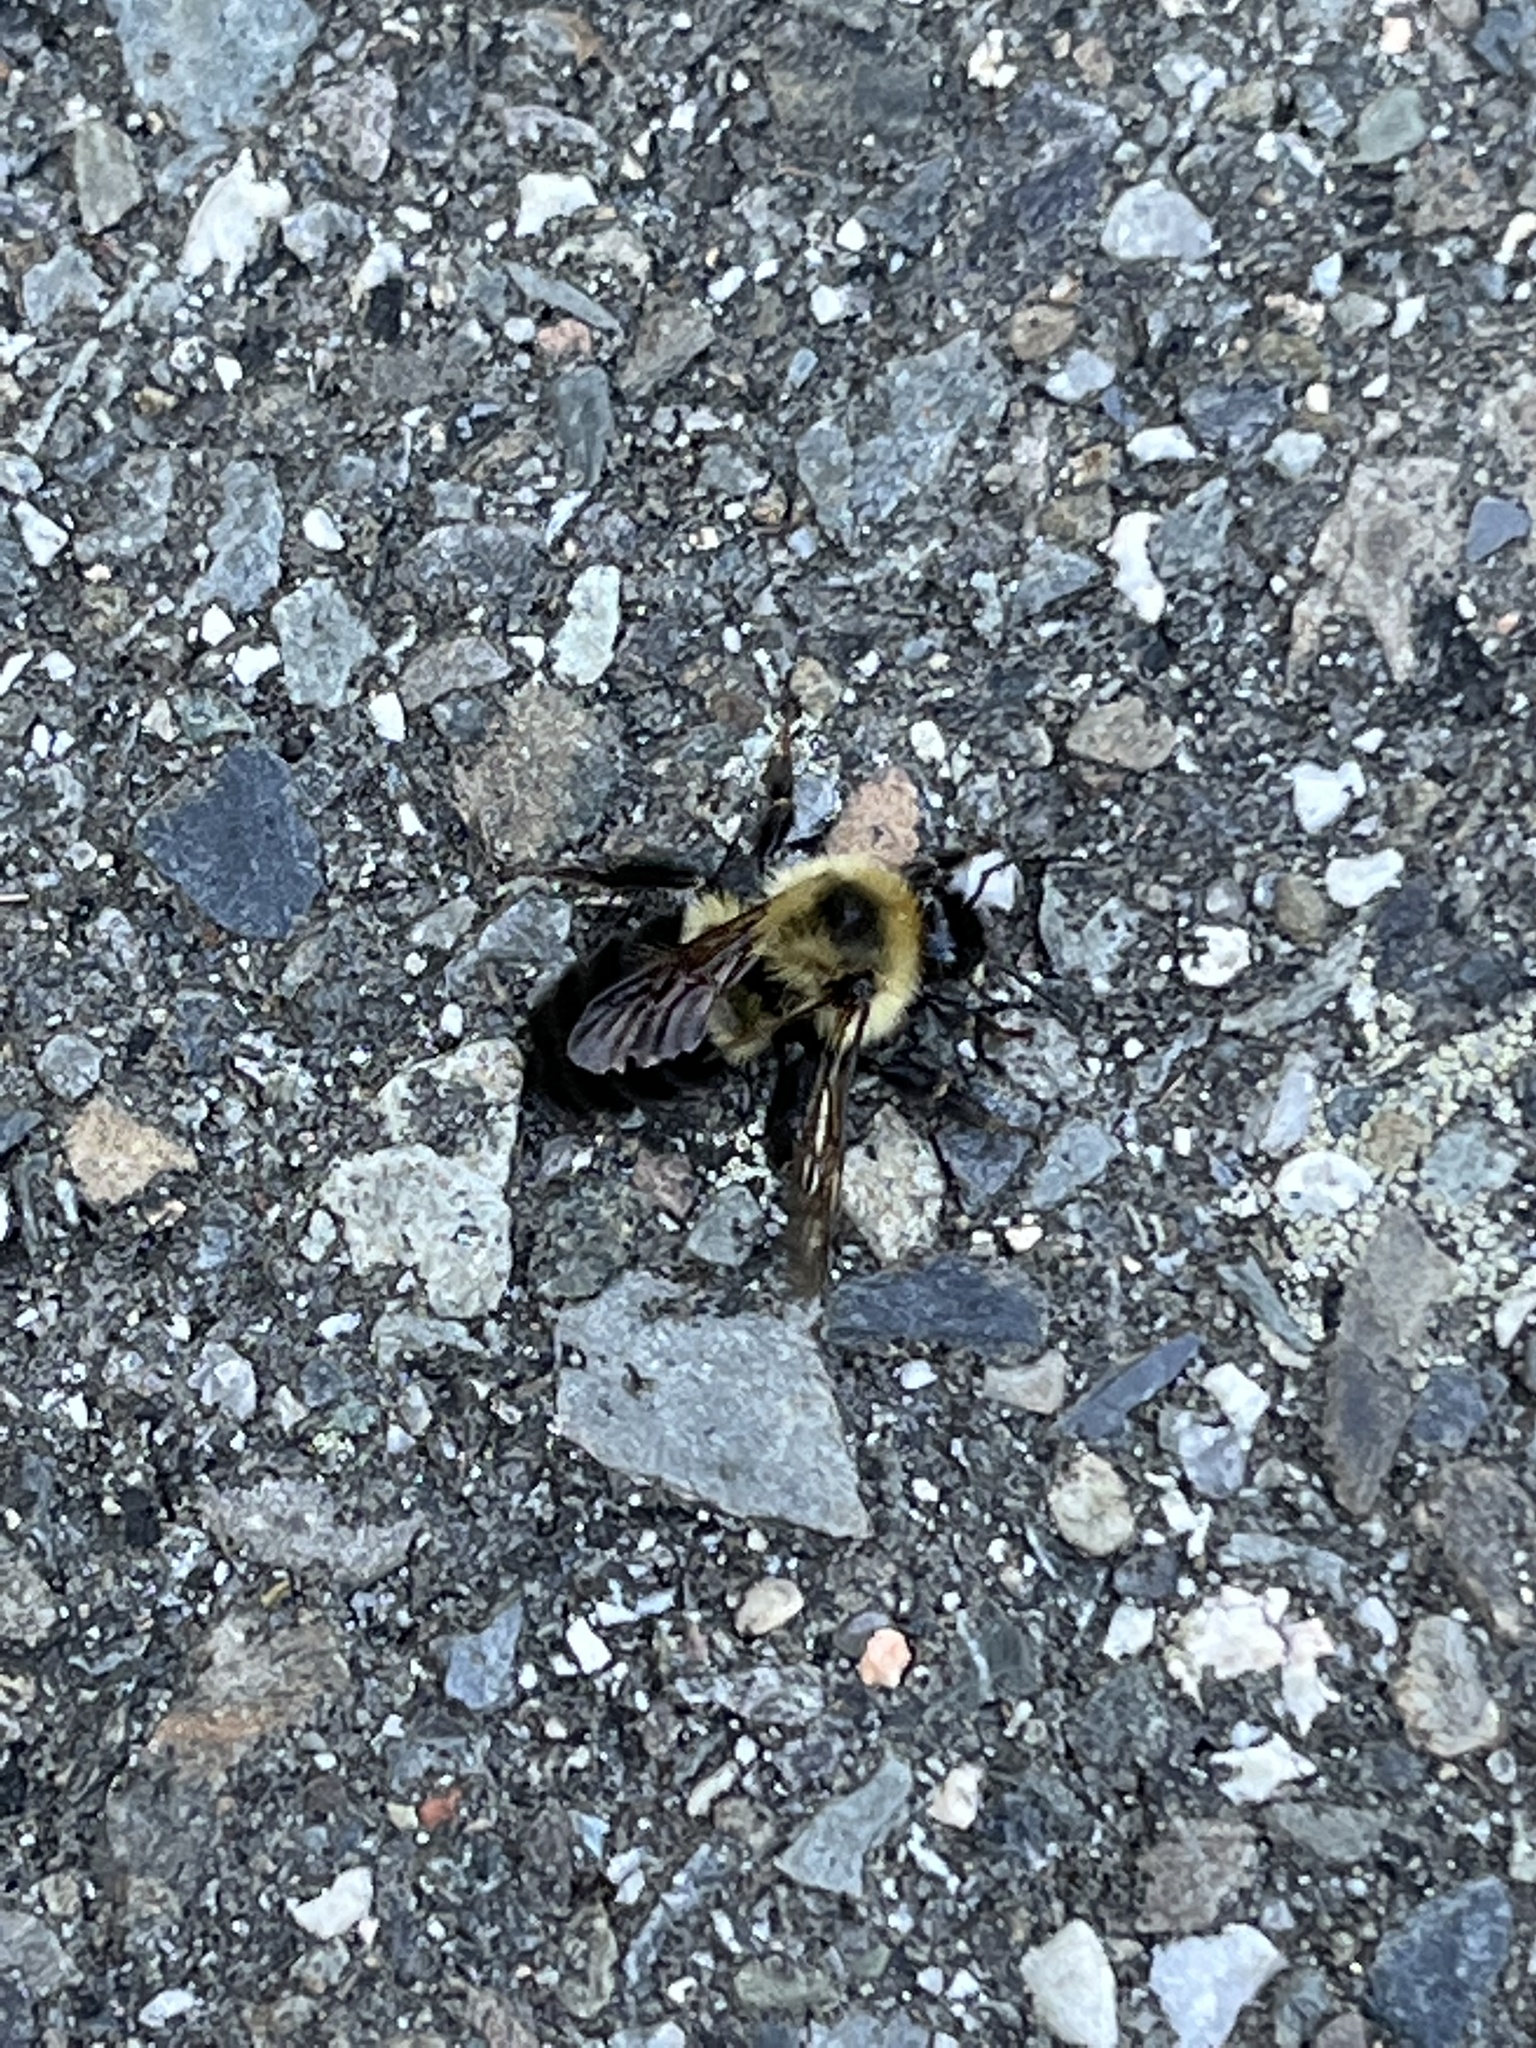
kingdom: Animalia
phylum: Arthropoda
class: Insecta
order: Hymenoptera
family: Apidae
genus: Bombus
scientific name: Bombus bimaculatus
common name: Two-spotted bumble bee
